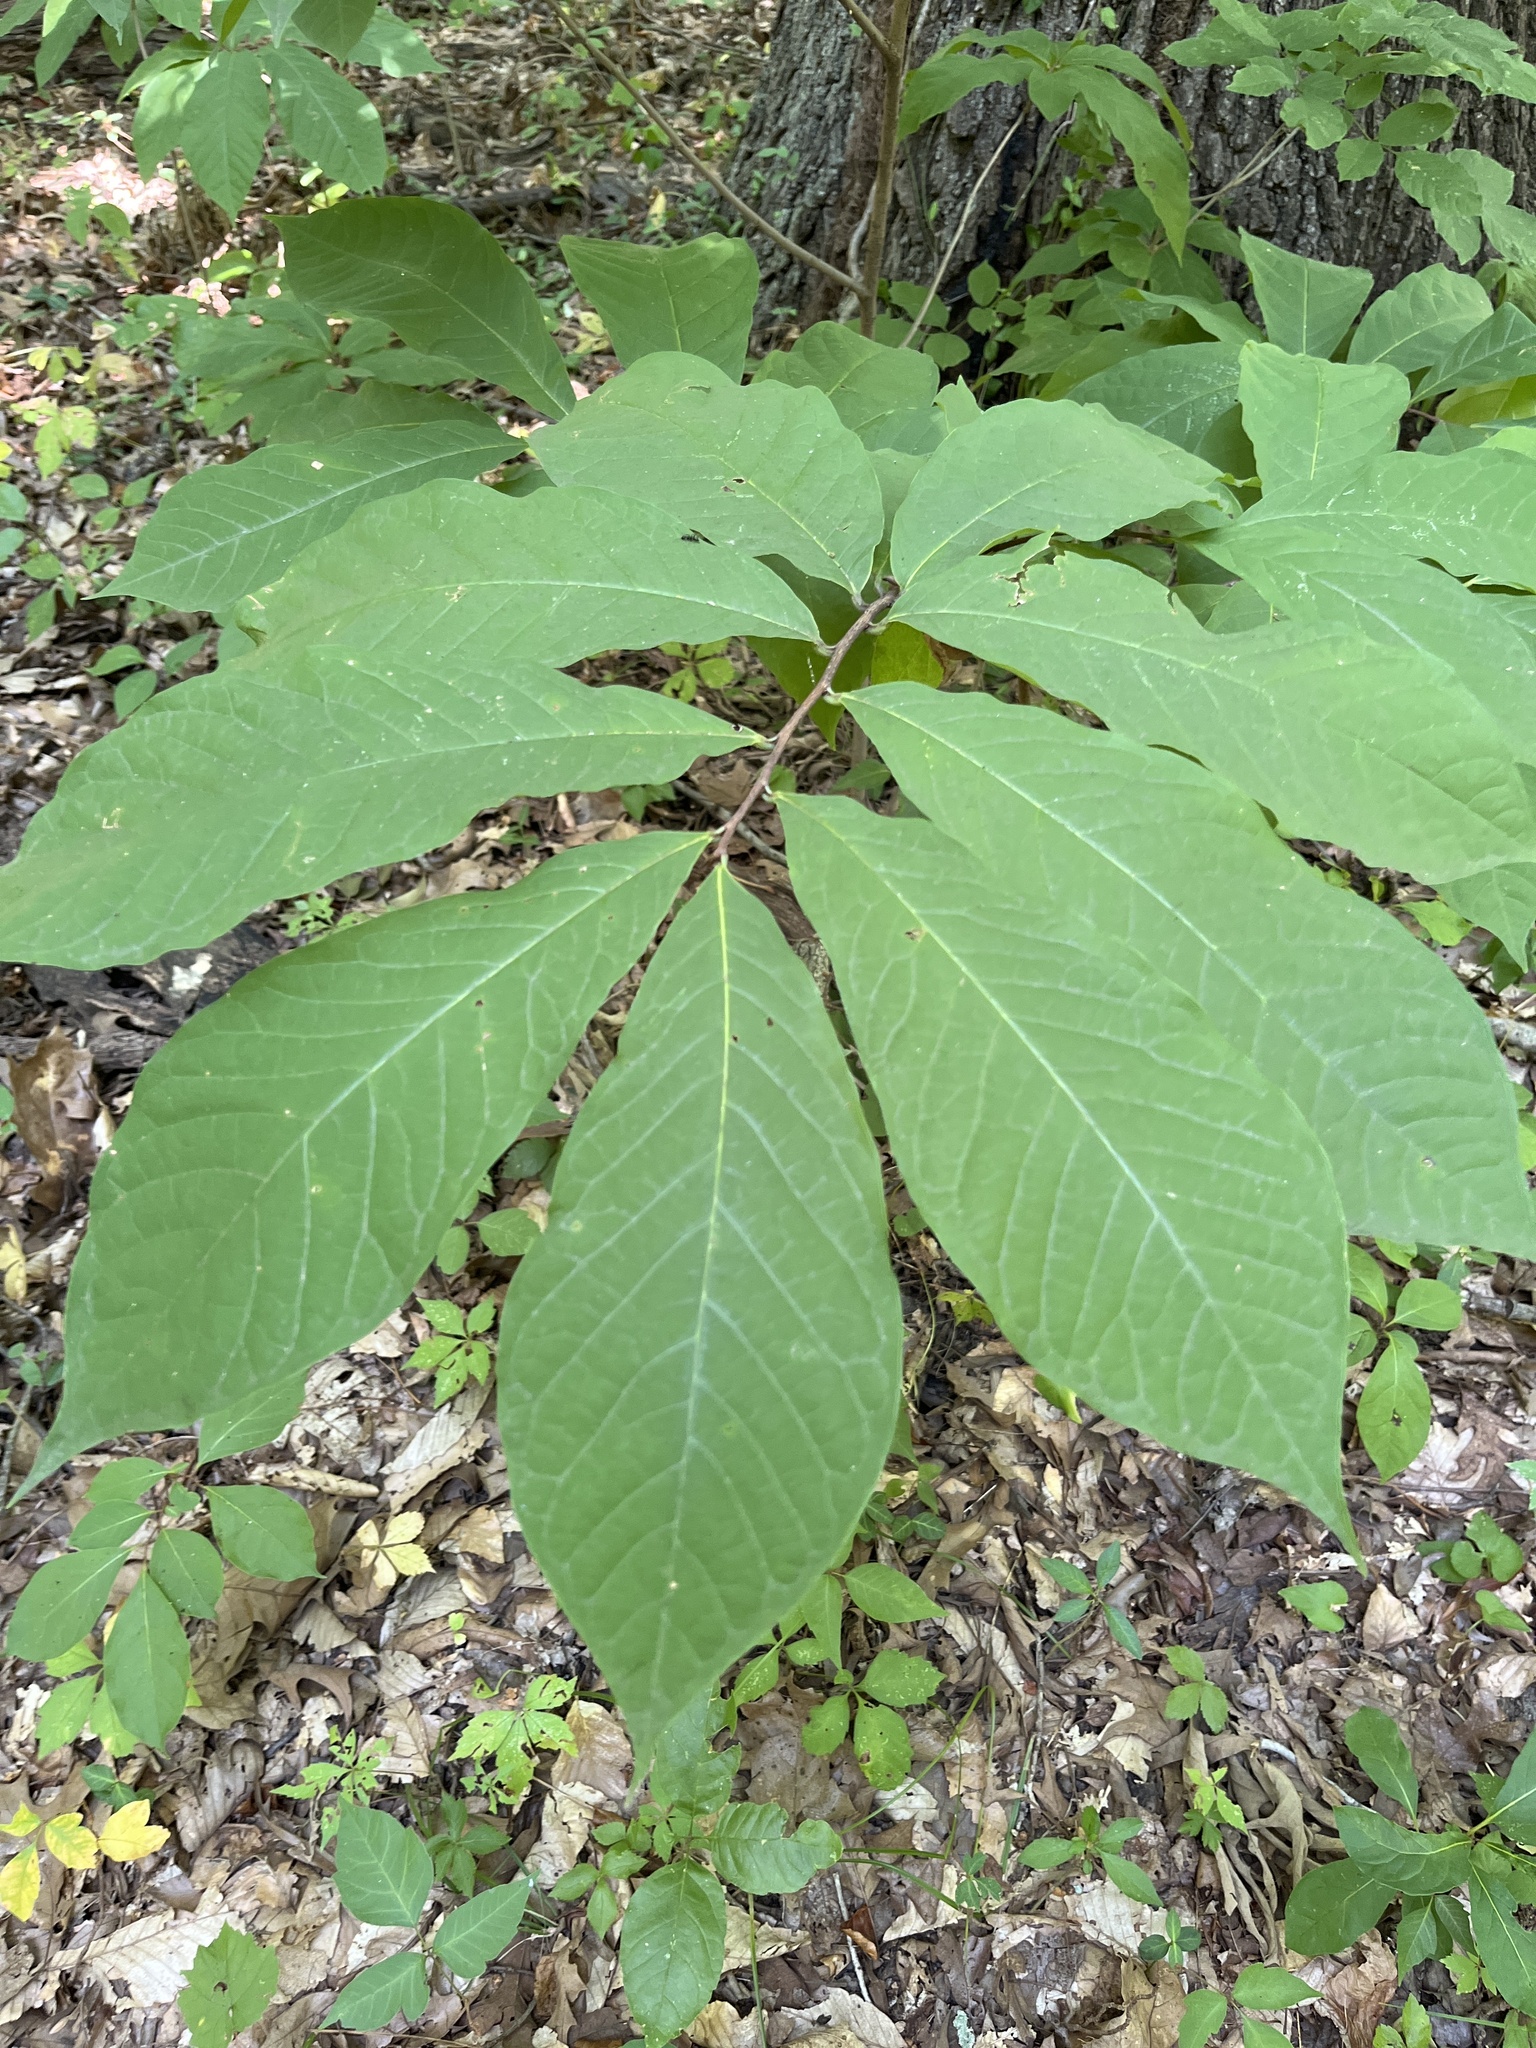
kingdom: Plantae
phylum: Tracheophyta
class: Magnoliopsida
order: Magnoliales
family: Annonaceae
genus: Asimina
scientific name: Asimina triloba
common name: Dog-banana
